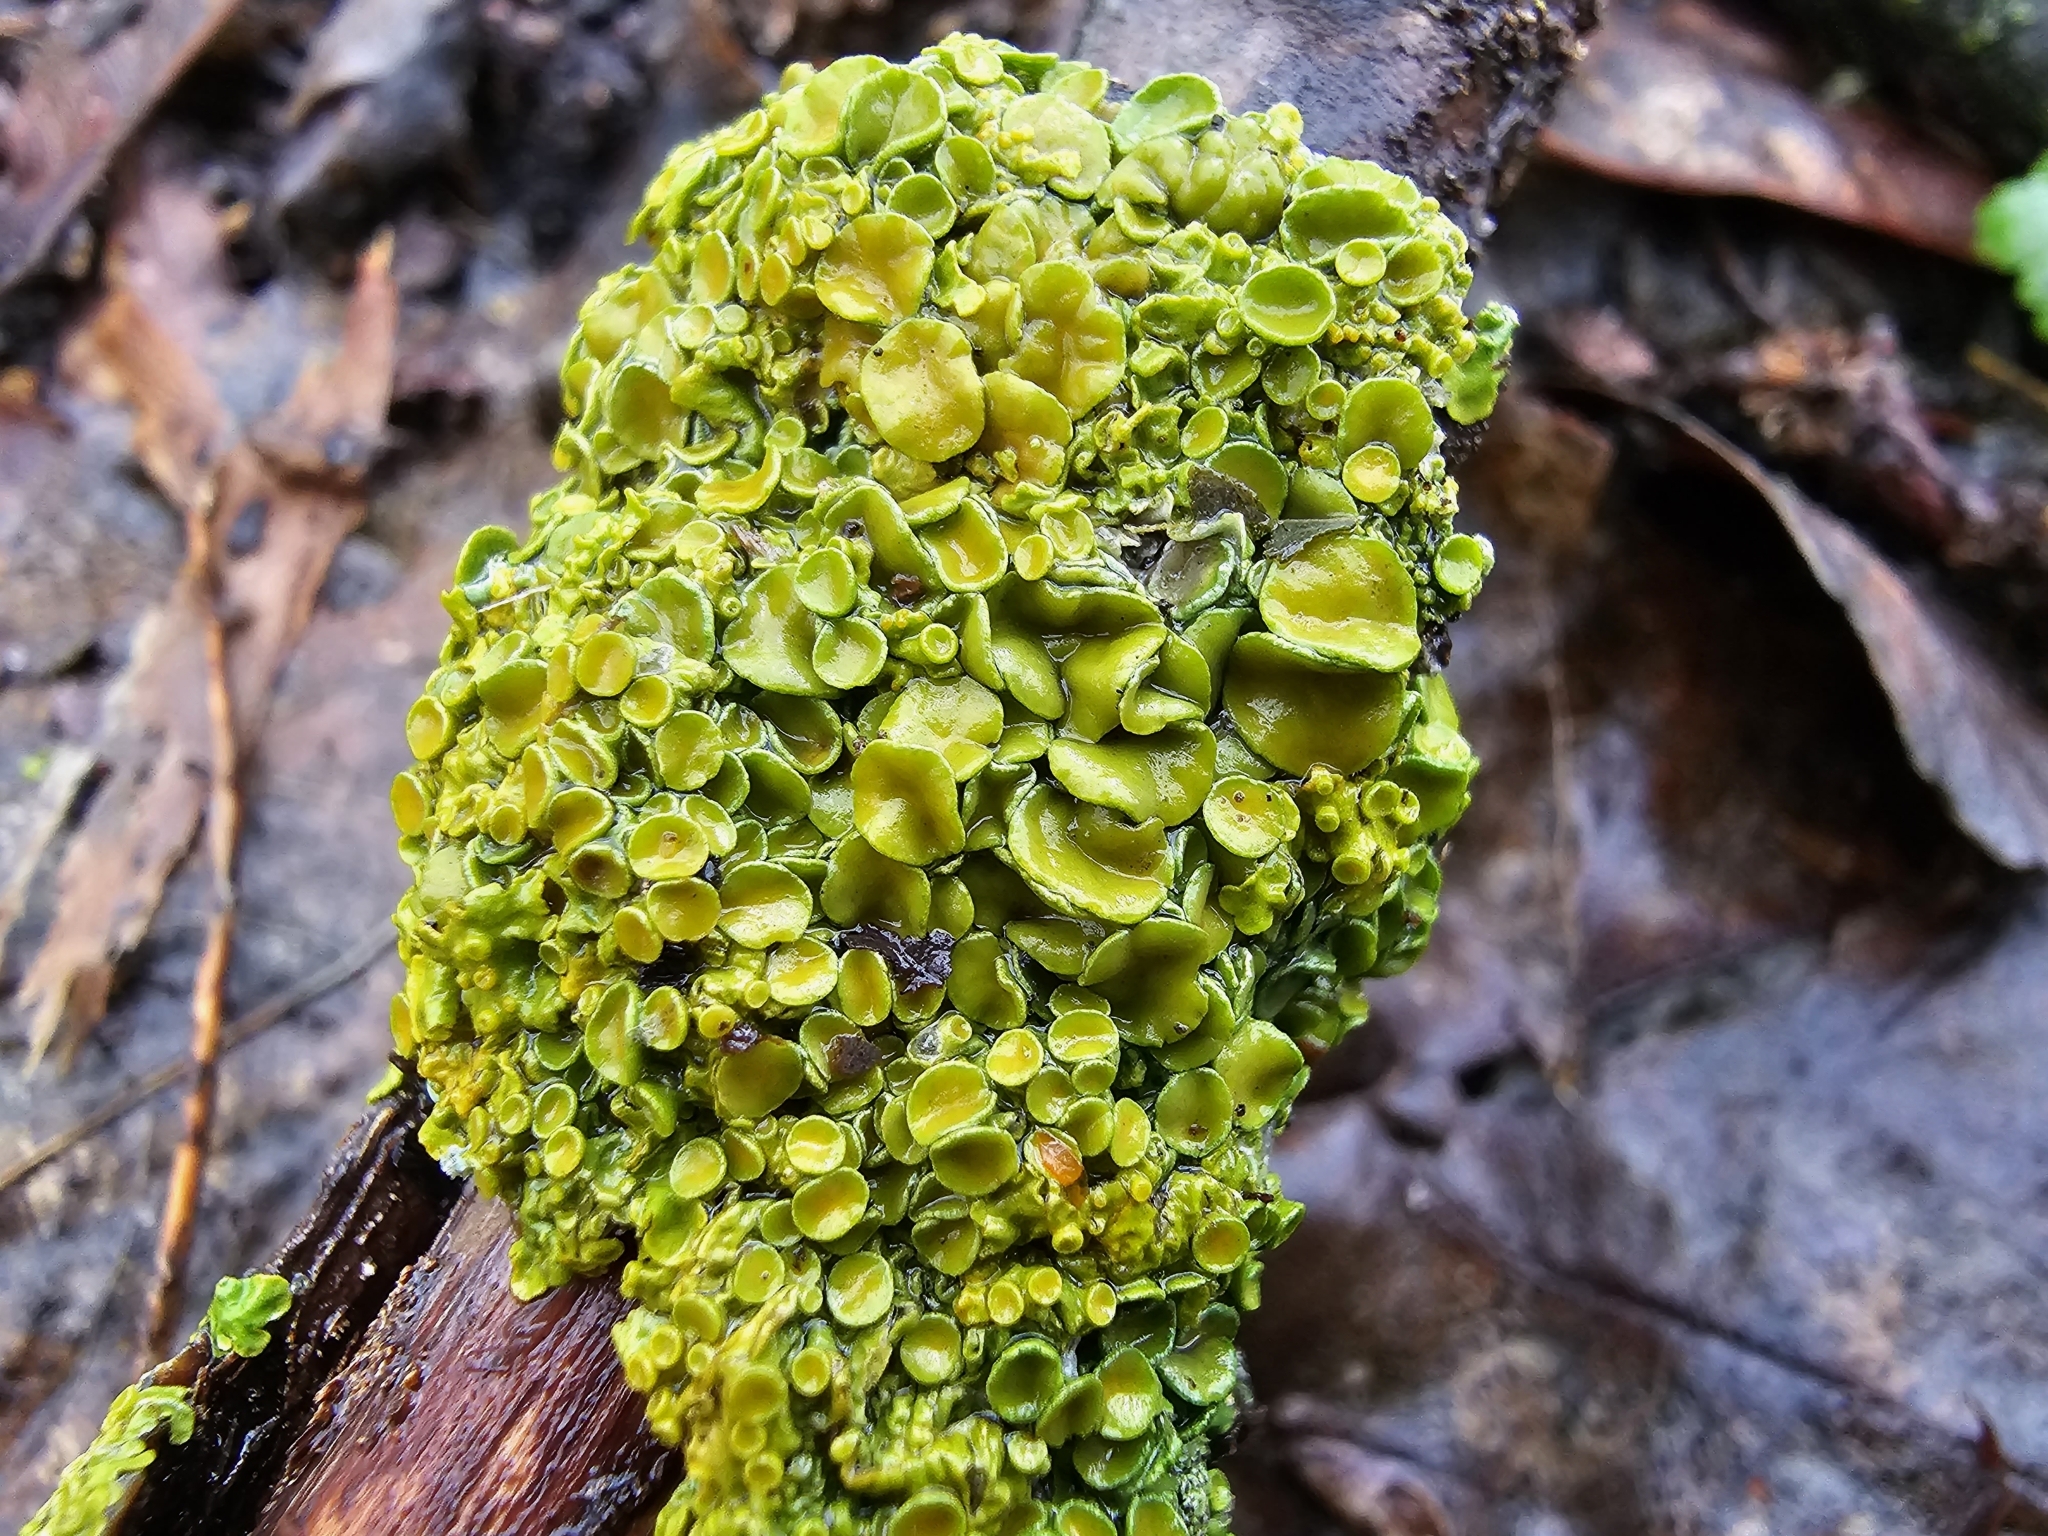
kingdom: Fungi
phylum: Ascomycota
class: Lecanoromycetes
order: Teloschistales
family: Teloschistaceae
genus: Xanthoria
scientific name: Xanthoria parietina
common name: Common orange lichen
